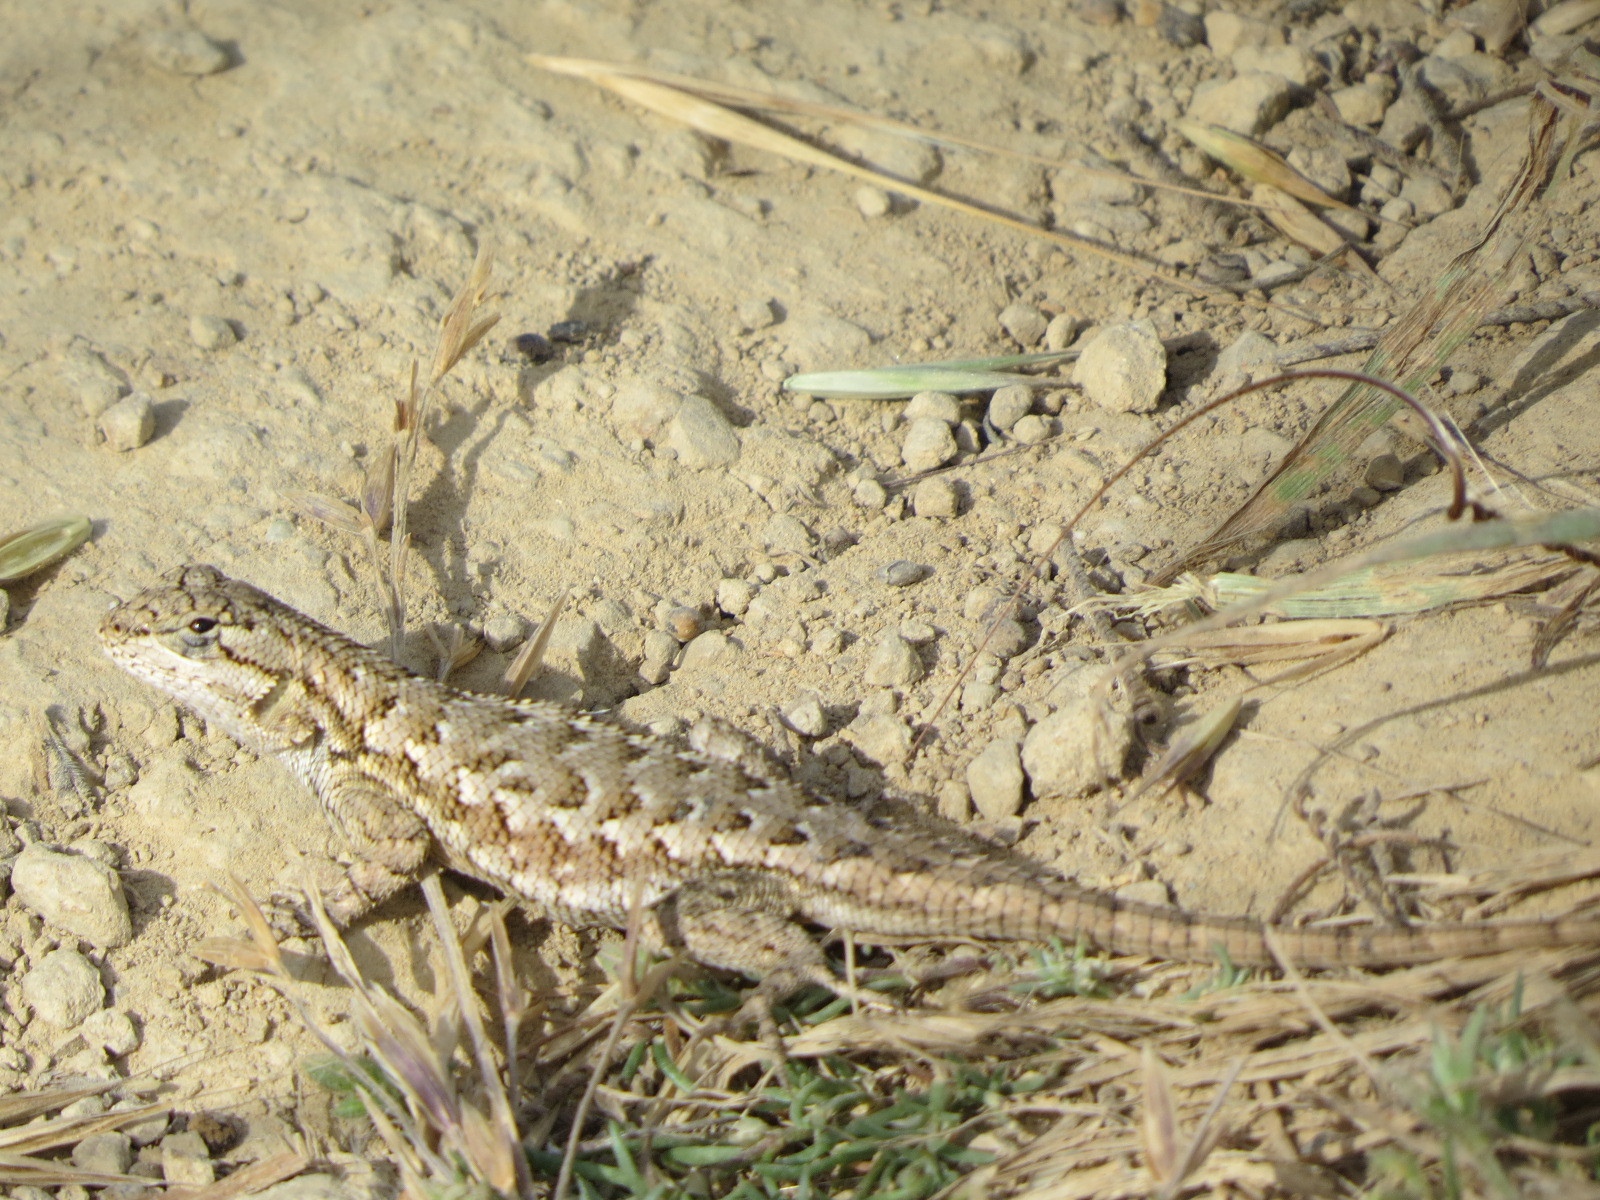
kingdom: Animalia
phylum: Chordata
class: Squamata
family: Phrynosomatidae
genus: Sceloporus
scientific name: Sceloporus occidentalis
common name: Western fence lizard
